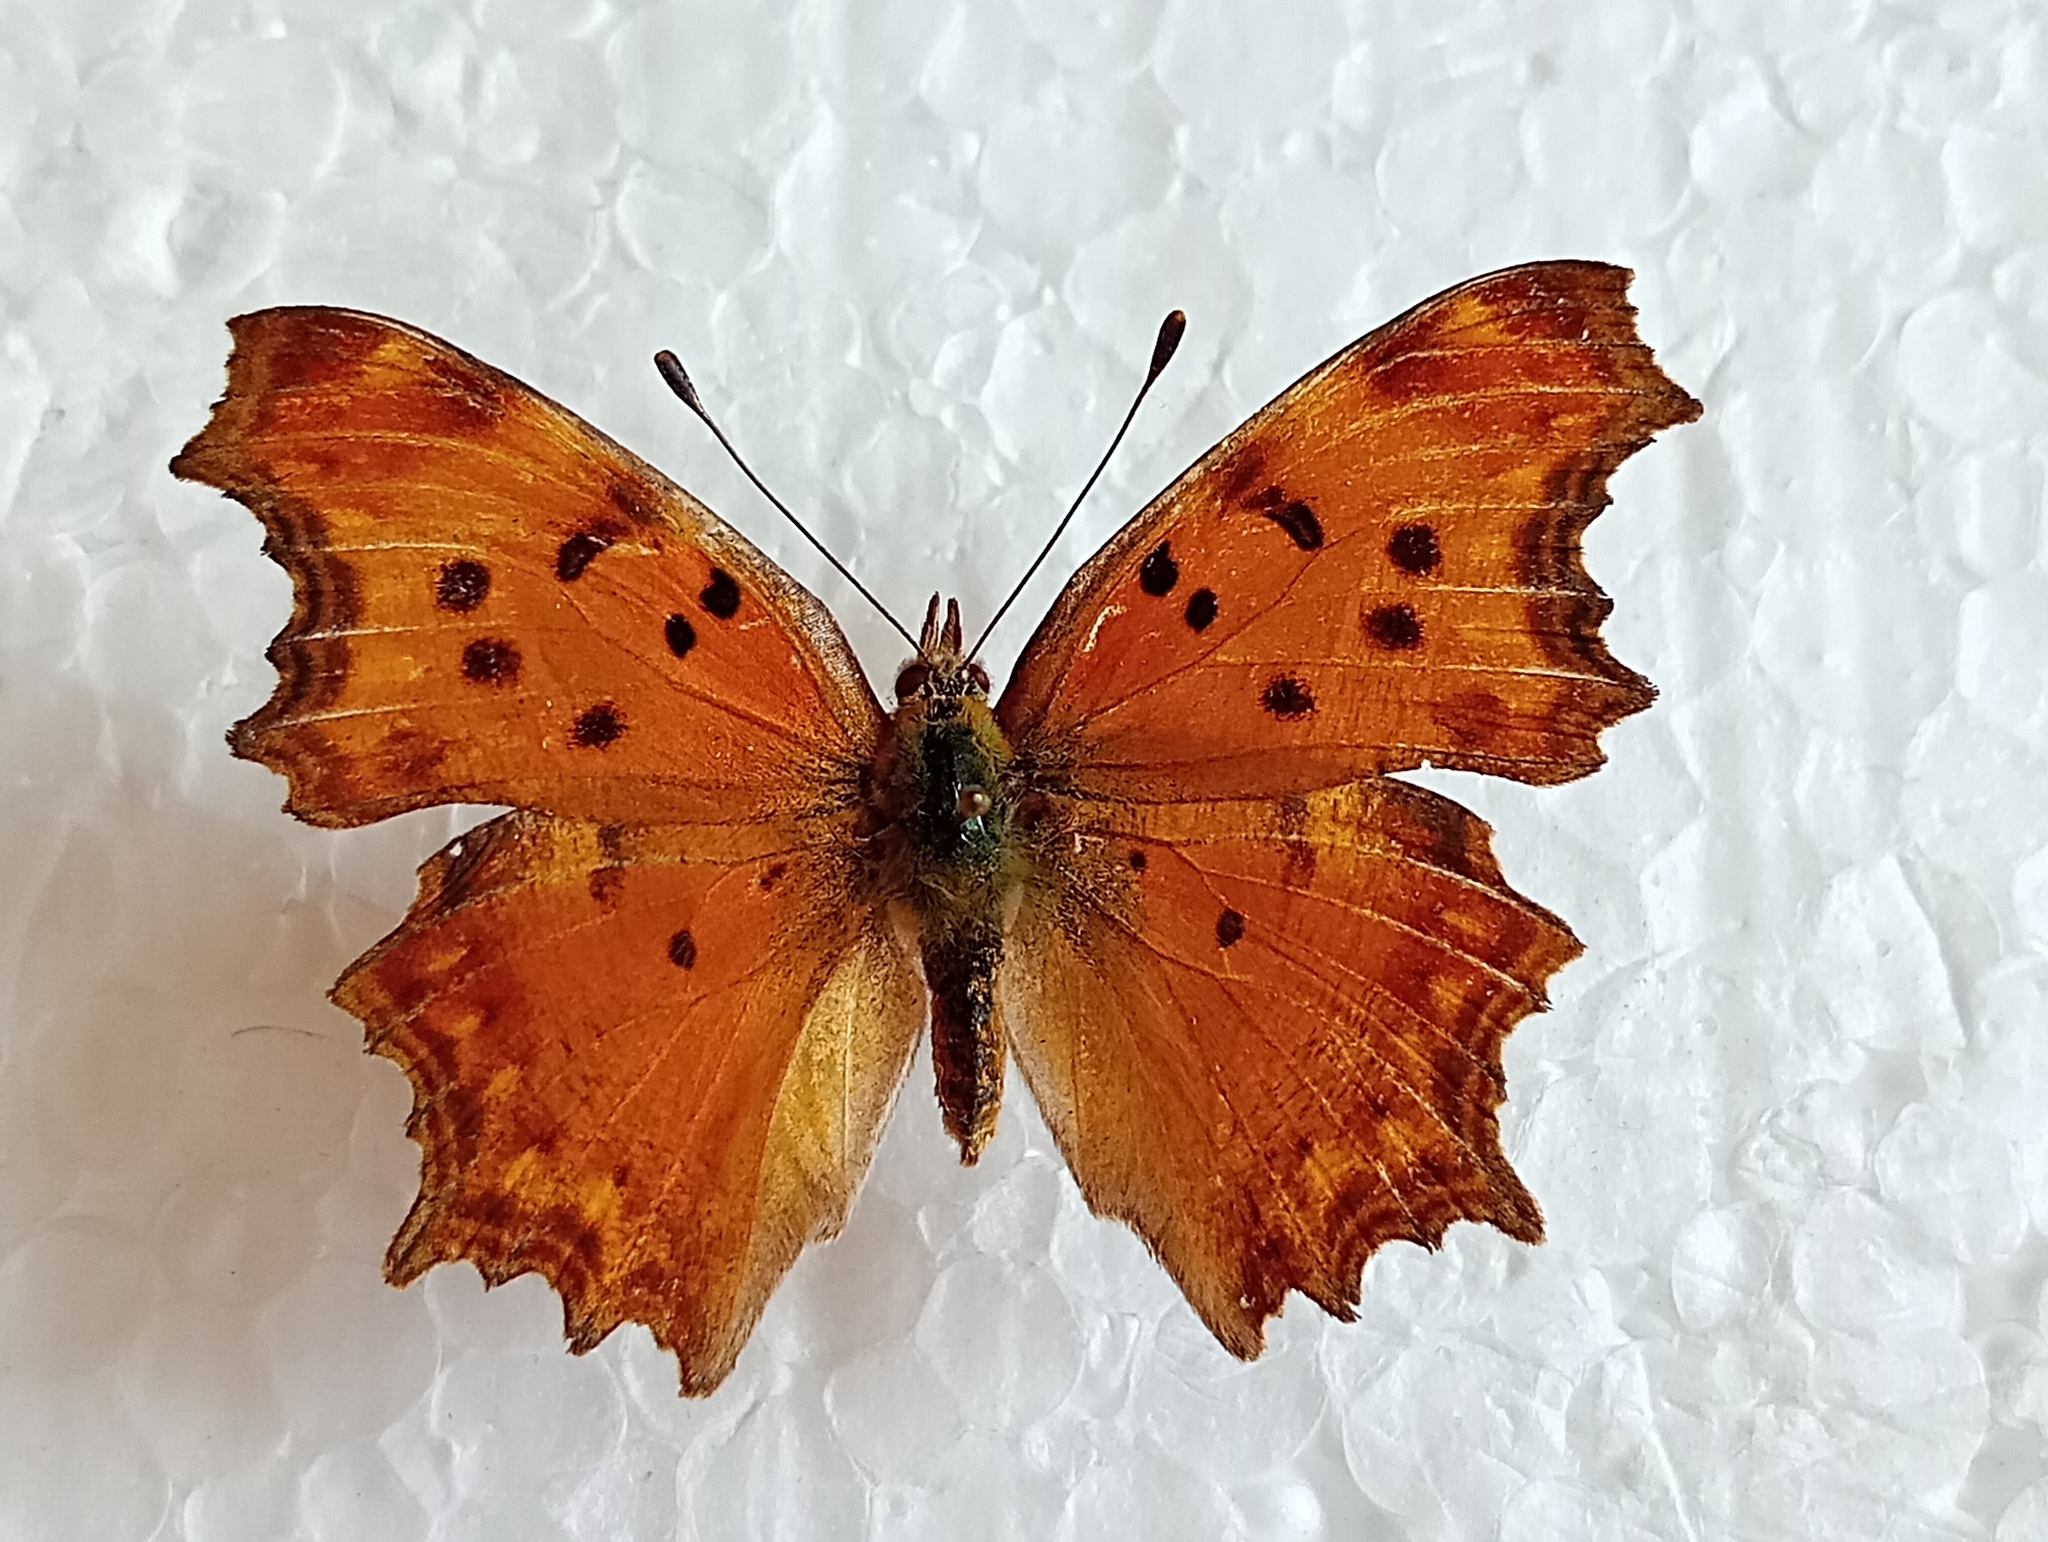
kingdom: Animalia
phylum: Arthropoda
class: Insecta
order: Lepidoptera
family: Nymphalidae
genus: Polygonia
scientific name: Polygonia egea
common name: Southern comma
